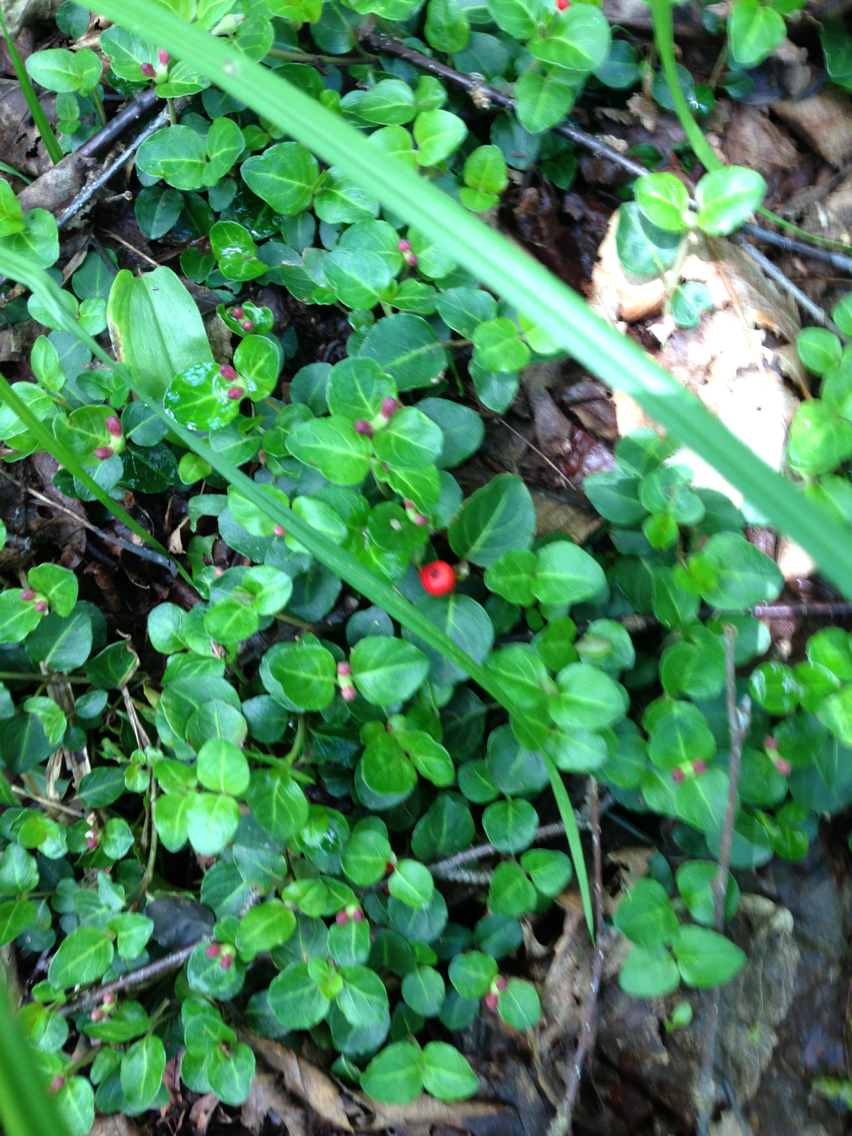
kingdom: Plantae
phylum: Tracheophyta
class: Magnoliopsida
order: Gentianales
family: Rubiaceae
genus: Mitchella
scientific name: Mitchella repens
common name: Partridge-berry
